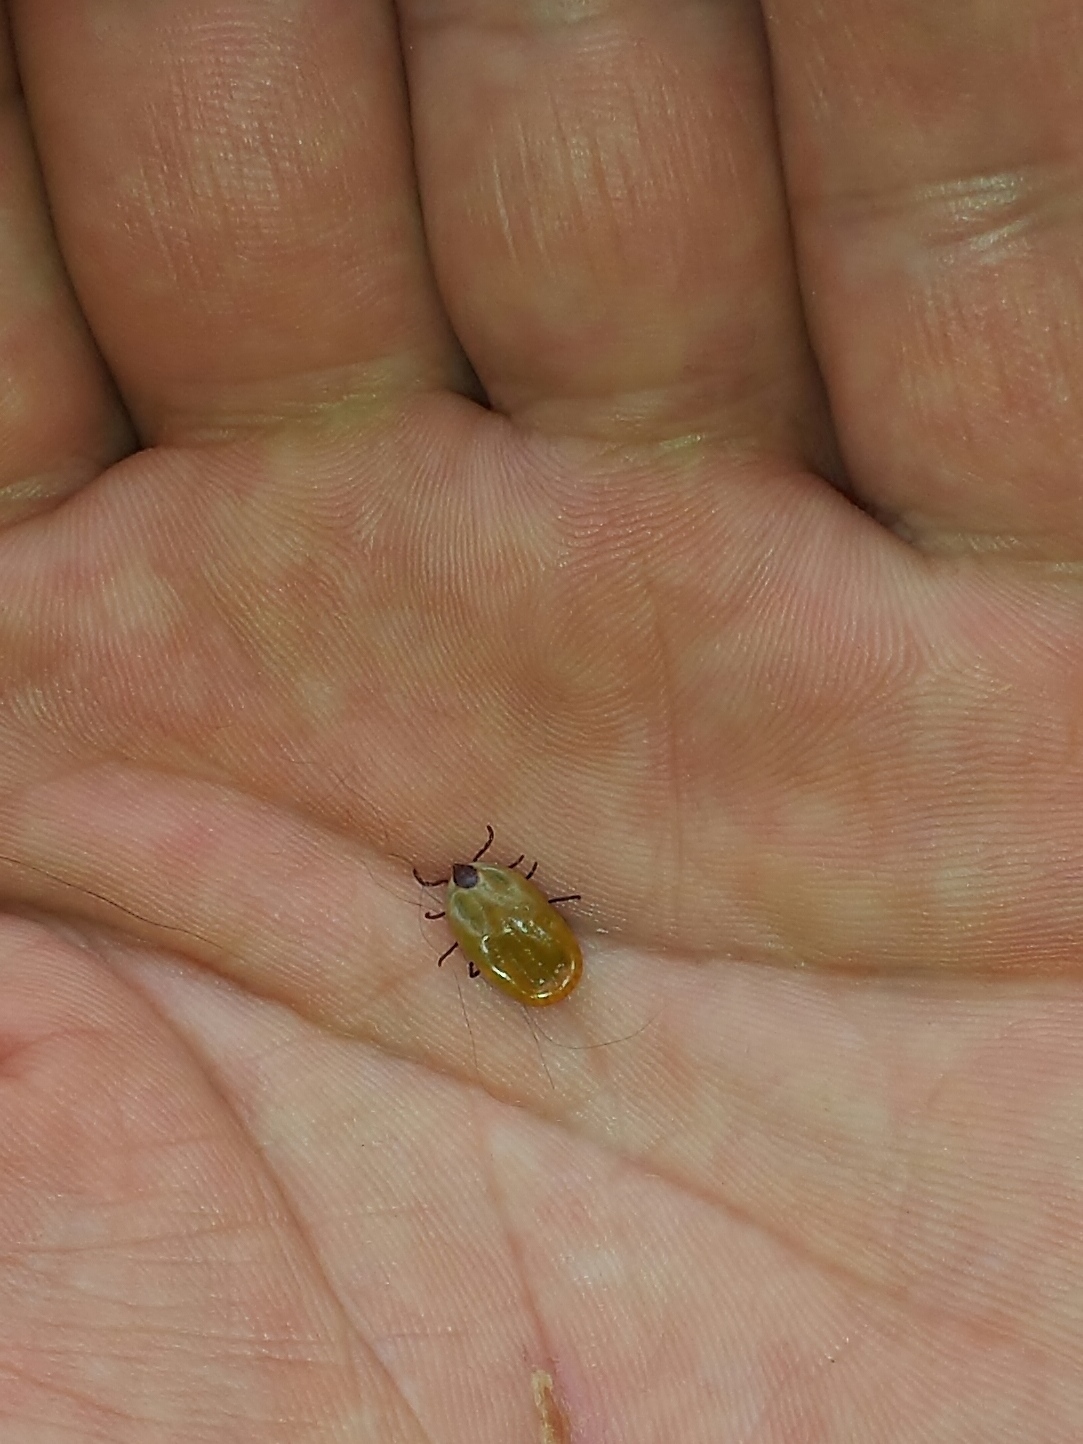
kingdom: Animalia
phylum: Arthropoda
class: Arachnida
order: Ixodida
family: Ixodidae
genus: Rhipicephalus
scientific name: Rhipicephalus sanguineus
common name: Brown dog tick
